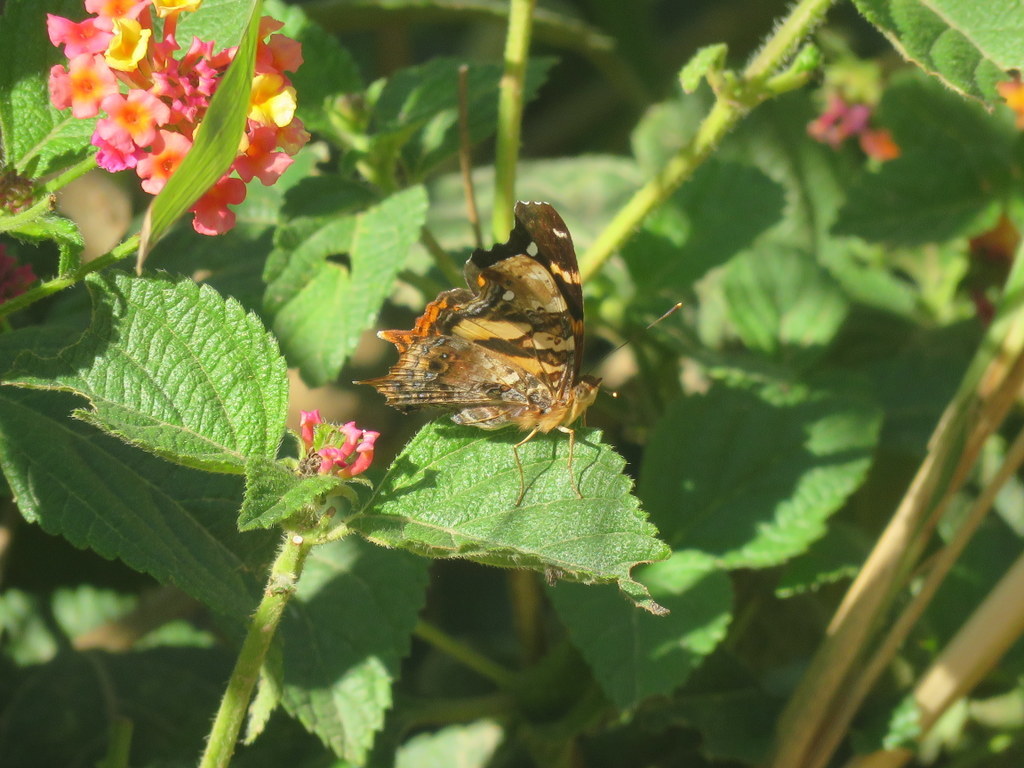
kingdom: Animalia
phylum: Arthropoda
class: Insecta
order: Lepidoptera
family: Nymphalidae
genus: Hypanartia
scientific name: Hypanartia bella
